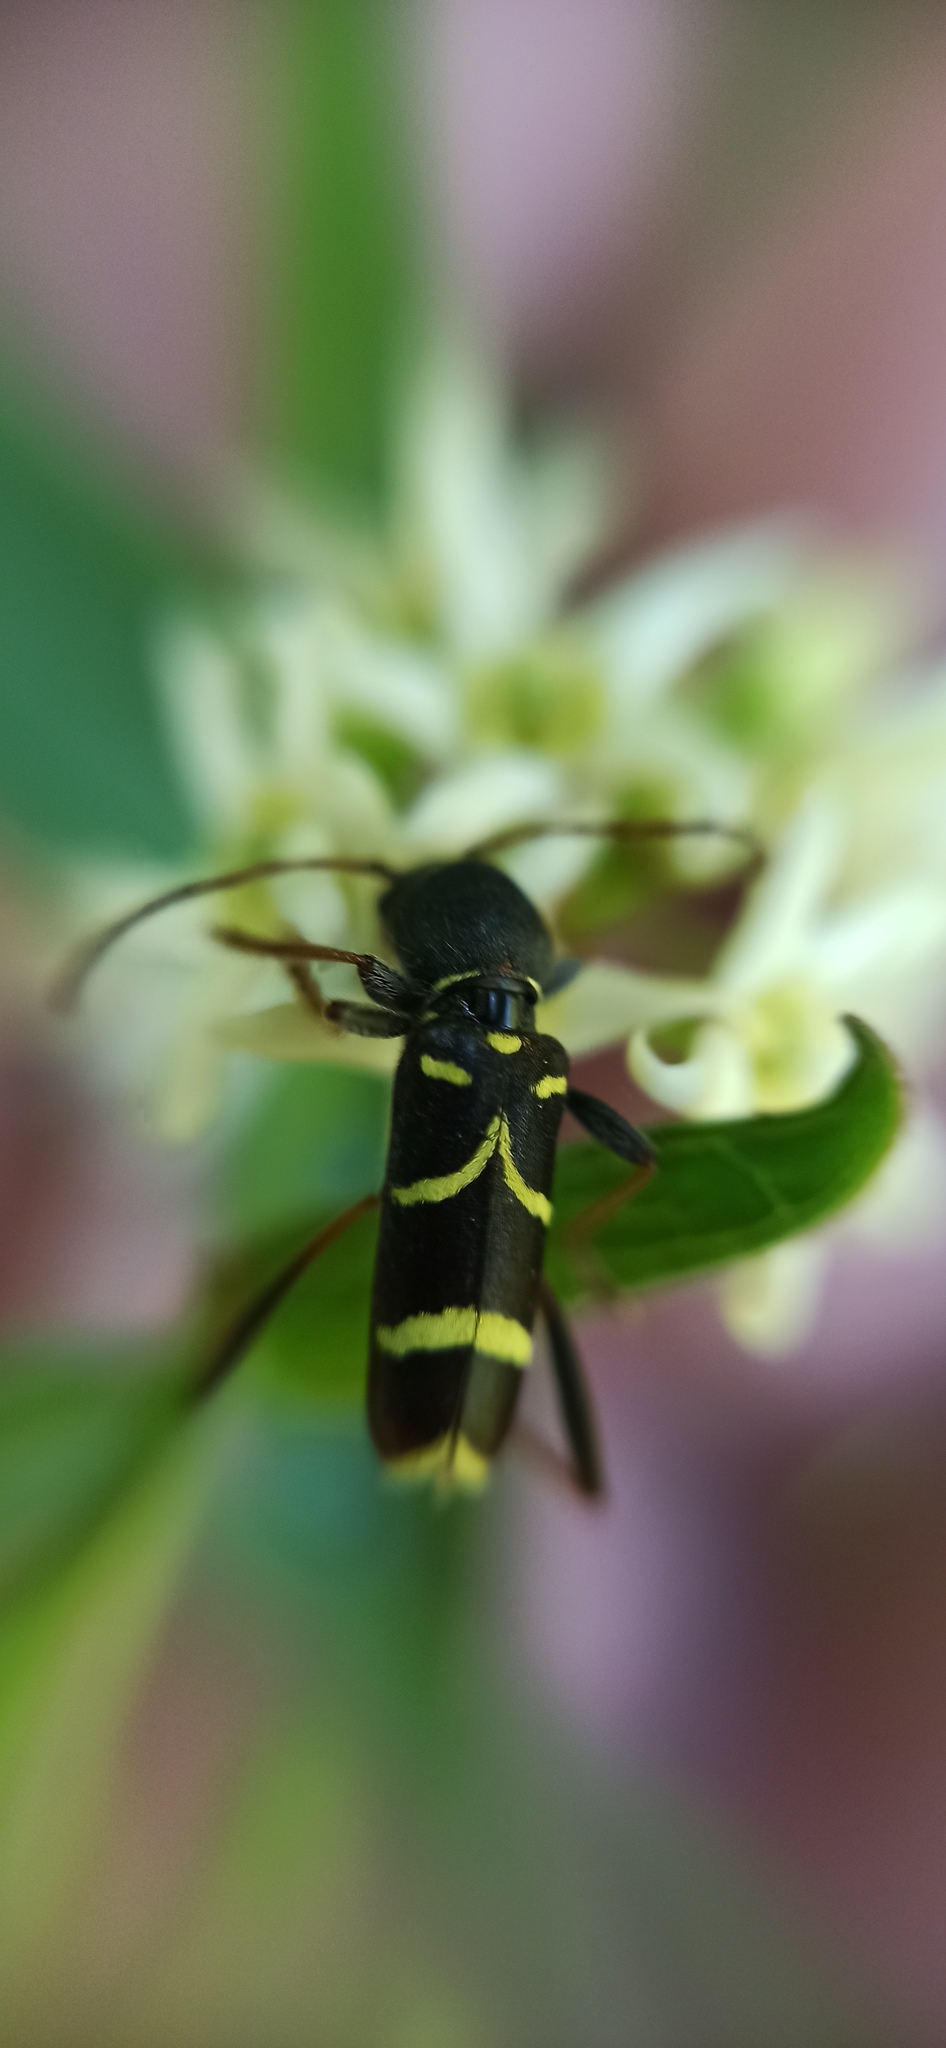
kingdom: Animalia
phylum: Arthropoda
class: Insecta
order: Coleoptera
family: Cerambycidae
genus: Clytus
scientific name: Clytus arietis
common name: Wasp beetle
